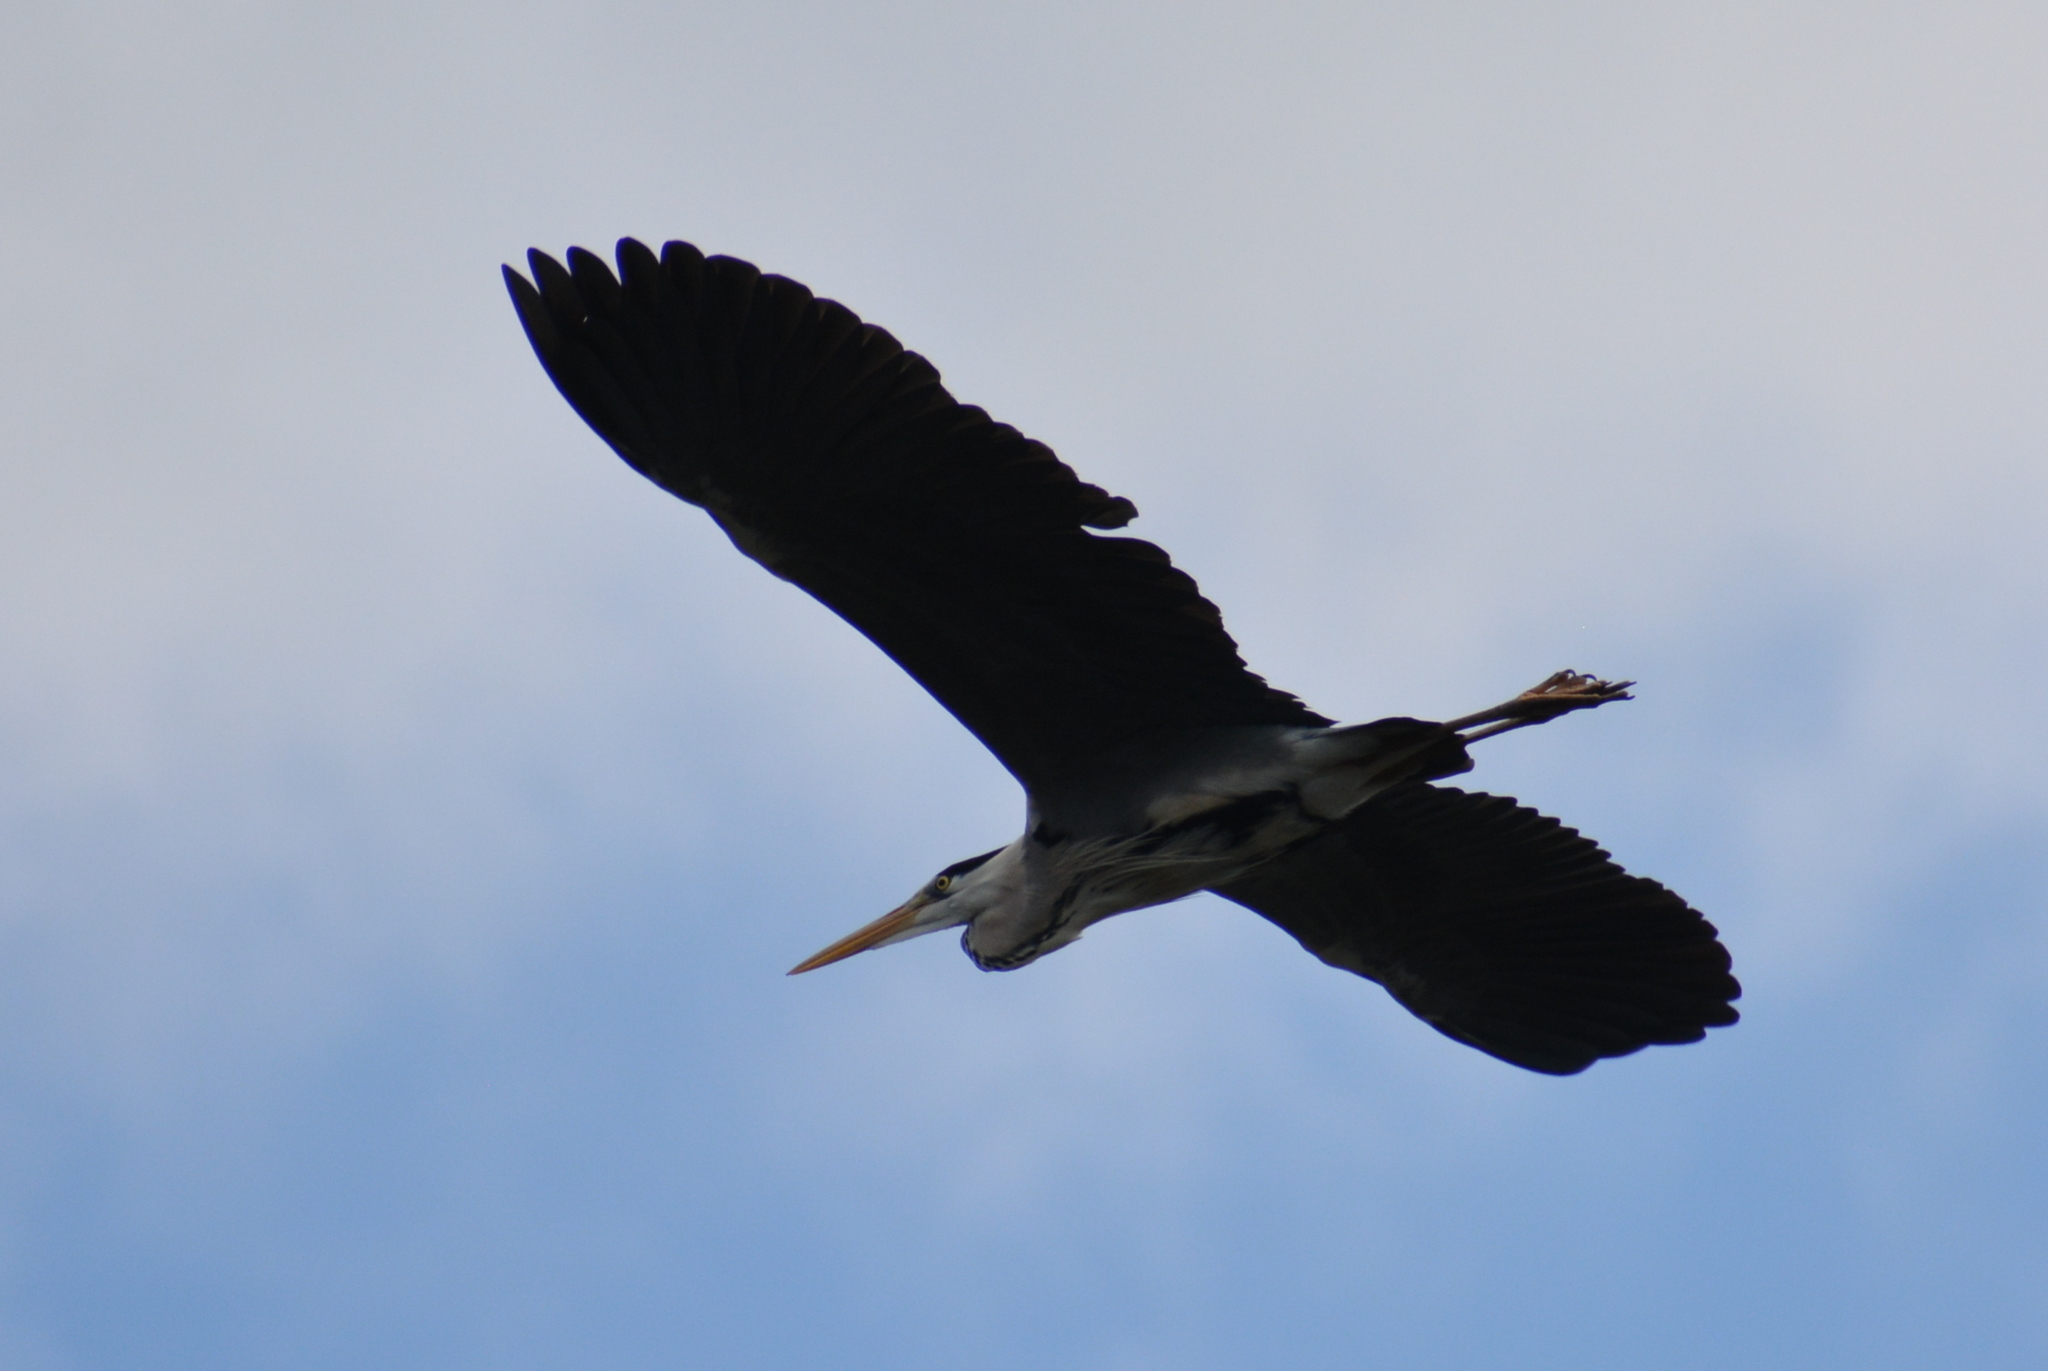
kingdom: Animalia
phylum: Chordata
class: Aves
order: Pelecaniformes
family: Ardeidae
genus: Ardea
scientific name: Ardea cinerea
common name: Grey heron
